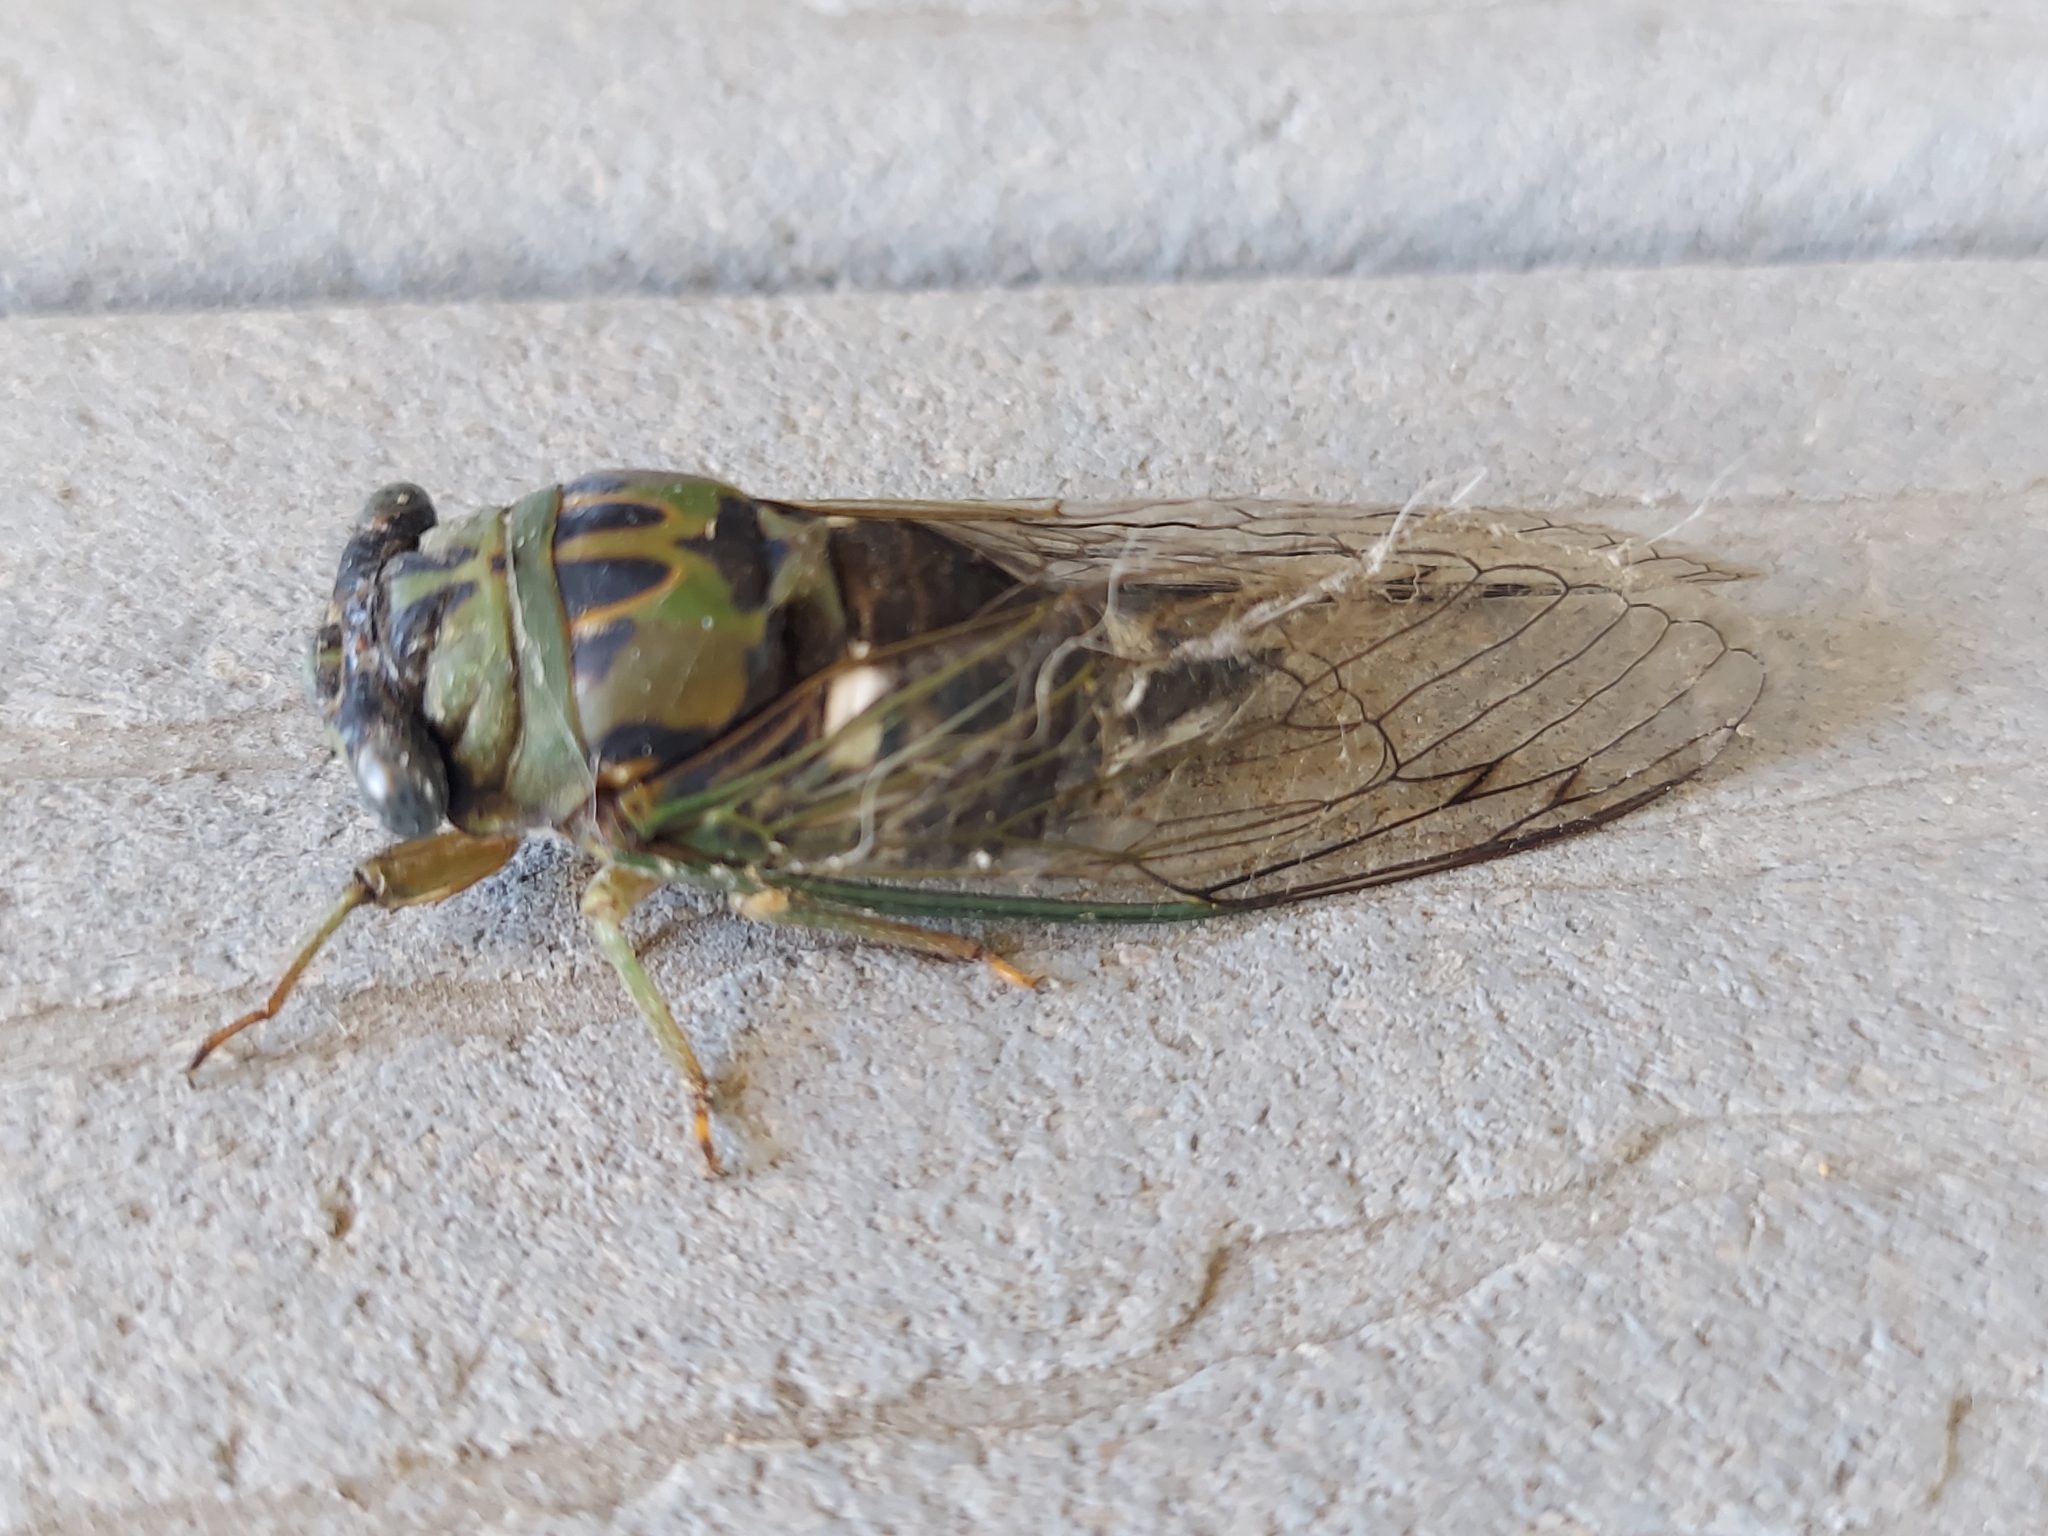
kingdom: Animalia
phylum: Arthropoda
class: Insecta
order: Hemiptera
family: Cicadidae
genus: Neotibicen
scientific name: Neotibicen pruinosus
